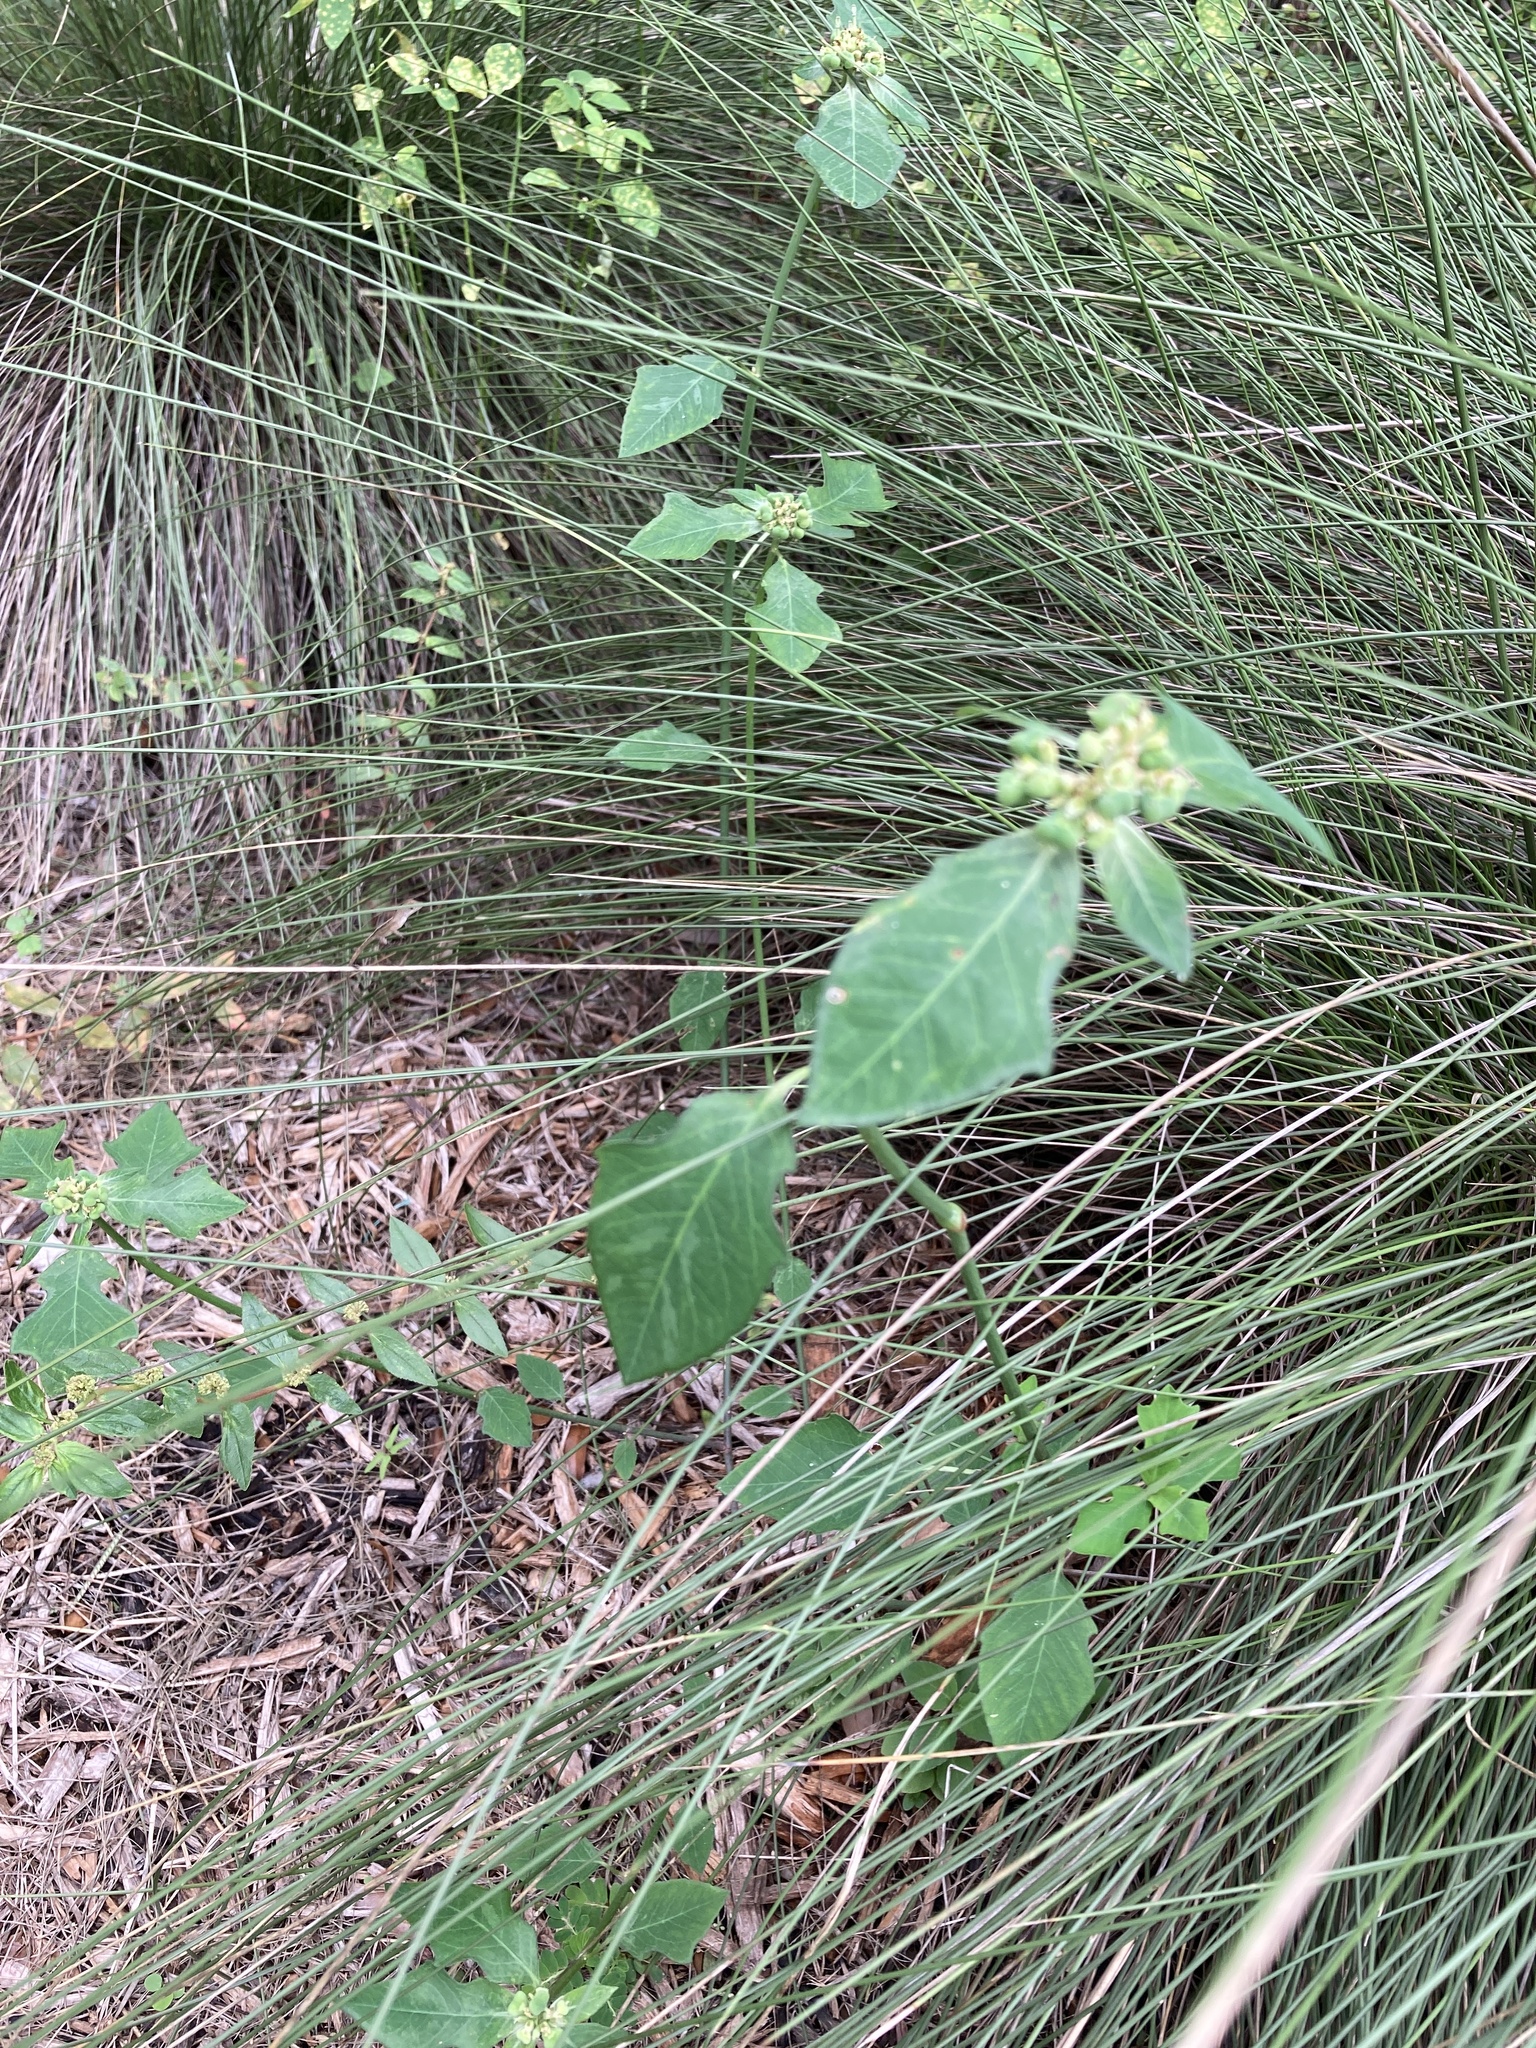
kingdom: Plantae
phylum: Tracheophyta
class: Magnoliopsida
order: Malpighiales
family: Euphorbiaceae
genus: Euphorbia
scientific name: Euphorbia heterophylla
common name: Mexican fireplant
